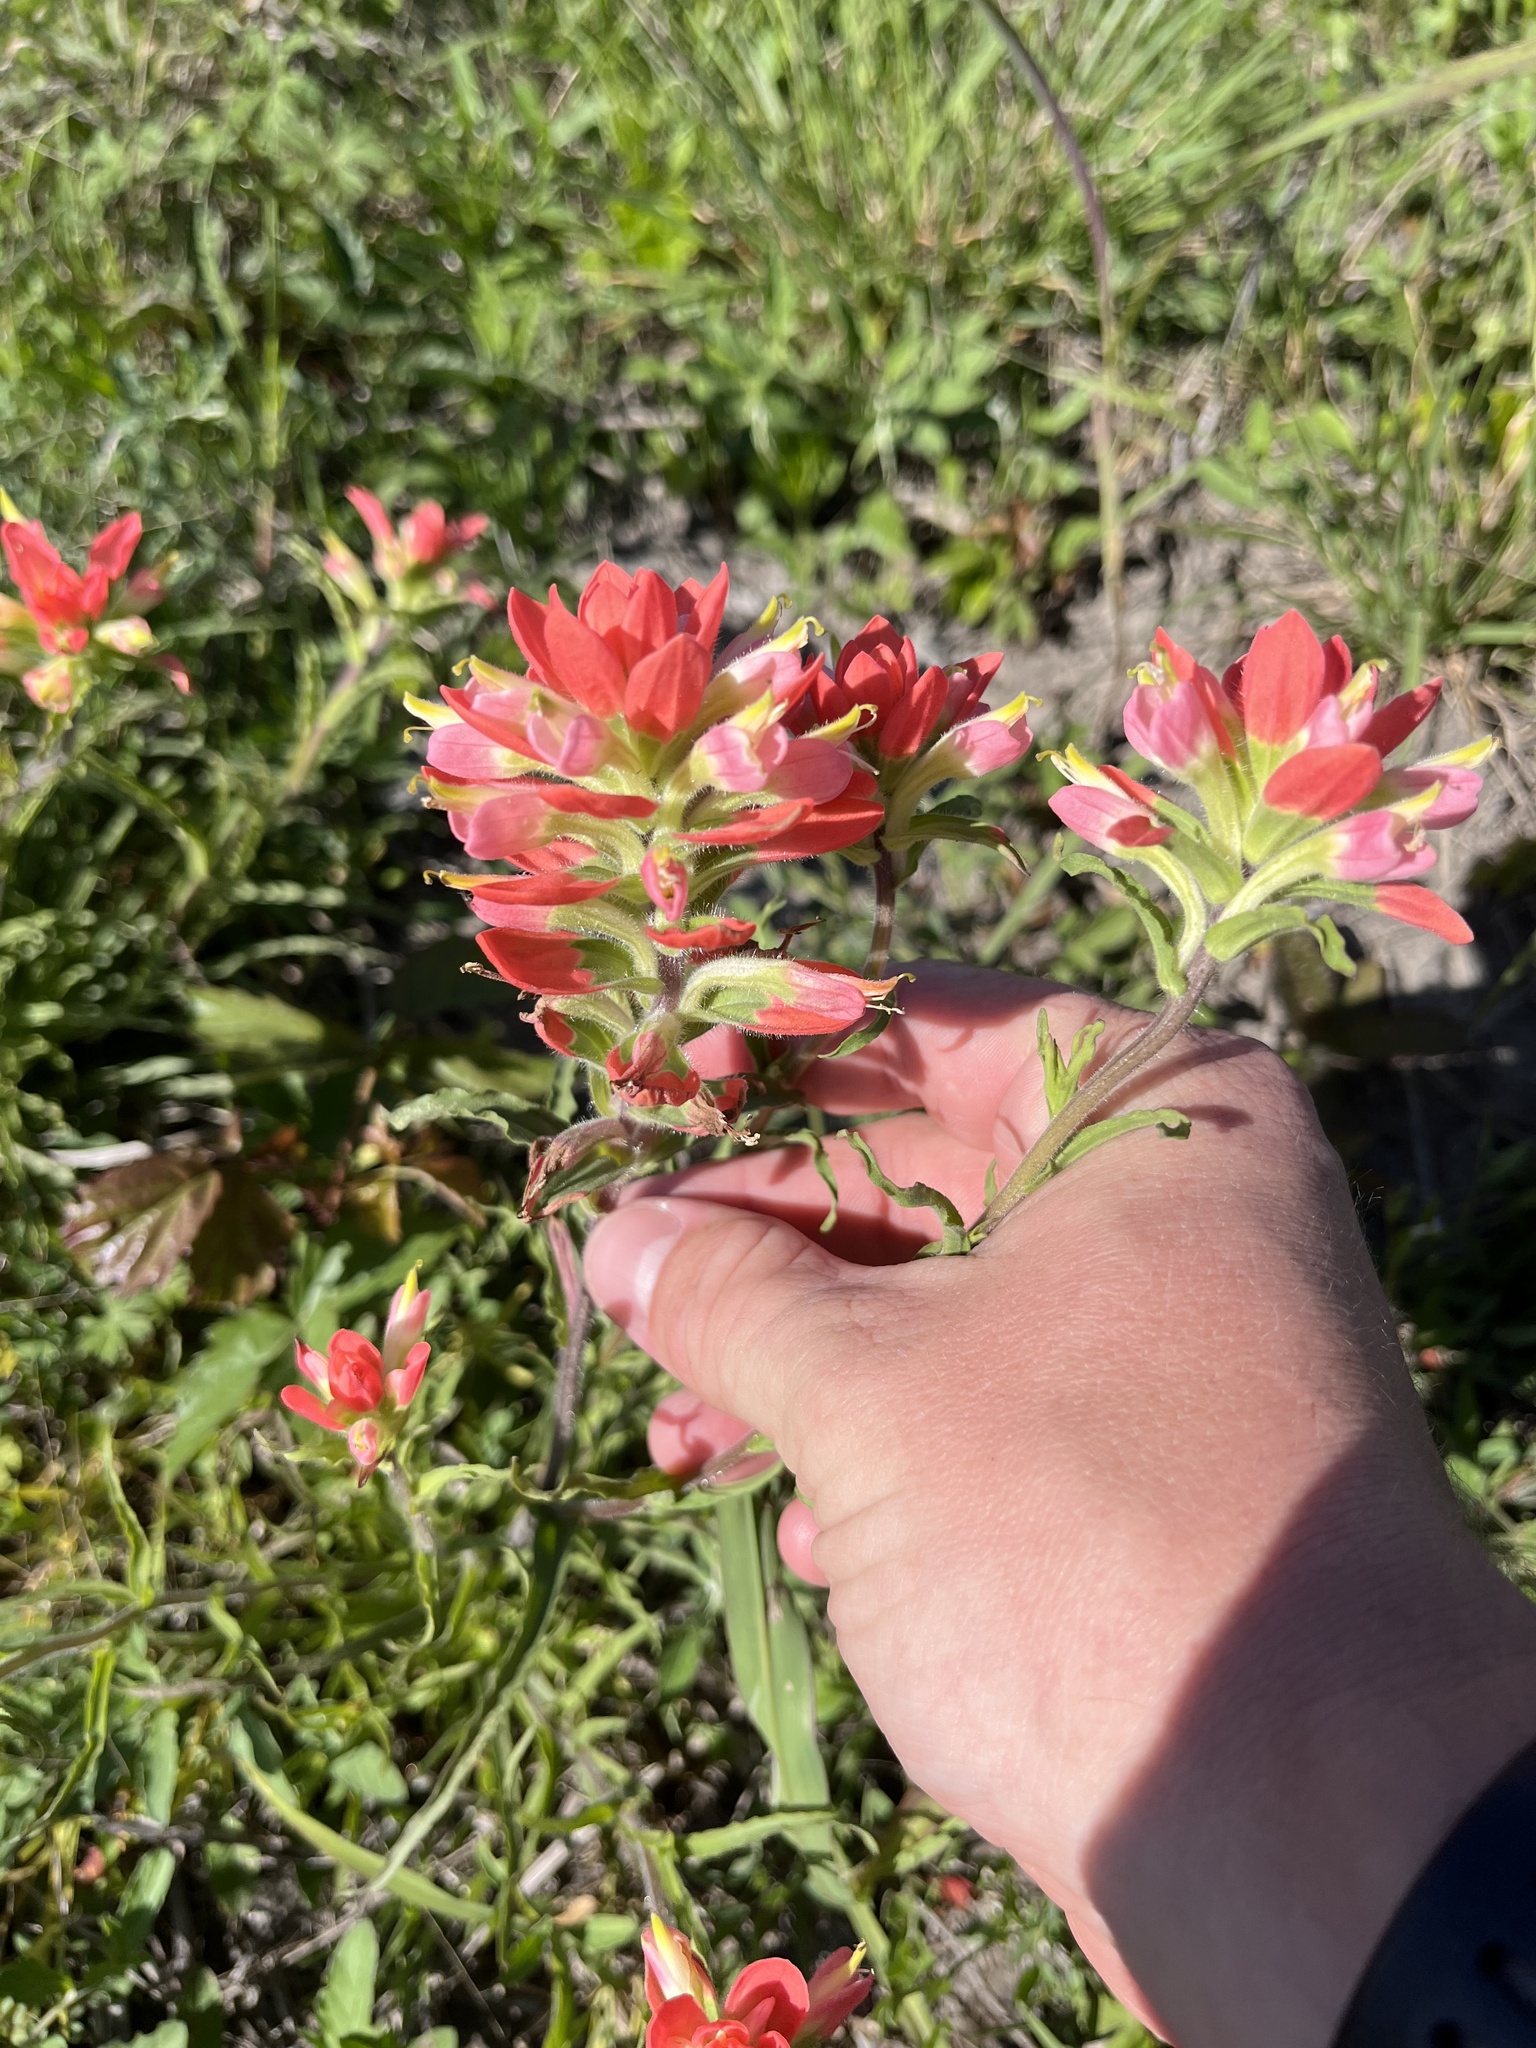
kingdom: Plantae
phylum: Tracheophyta
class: Magnoliopsida
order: Lamiales
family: Orobanchaceae
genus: Castilleja
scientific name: Castilleja indivisa
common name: Texas paintbrush
